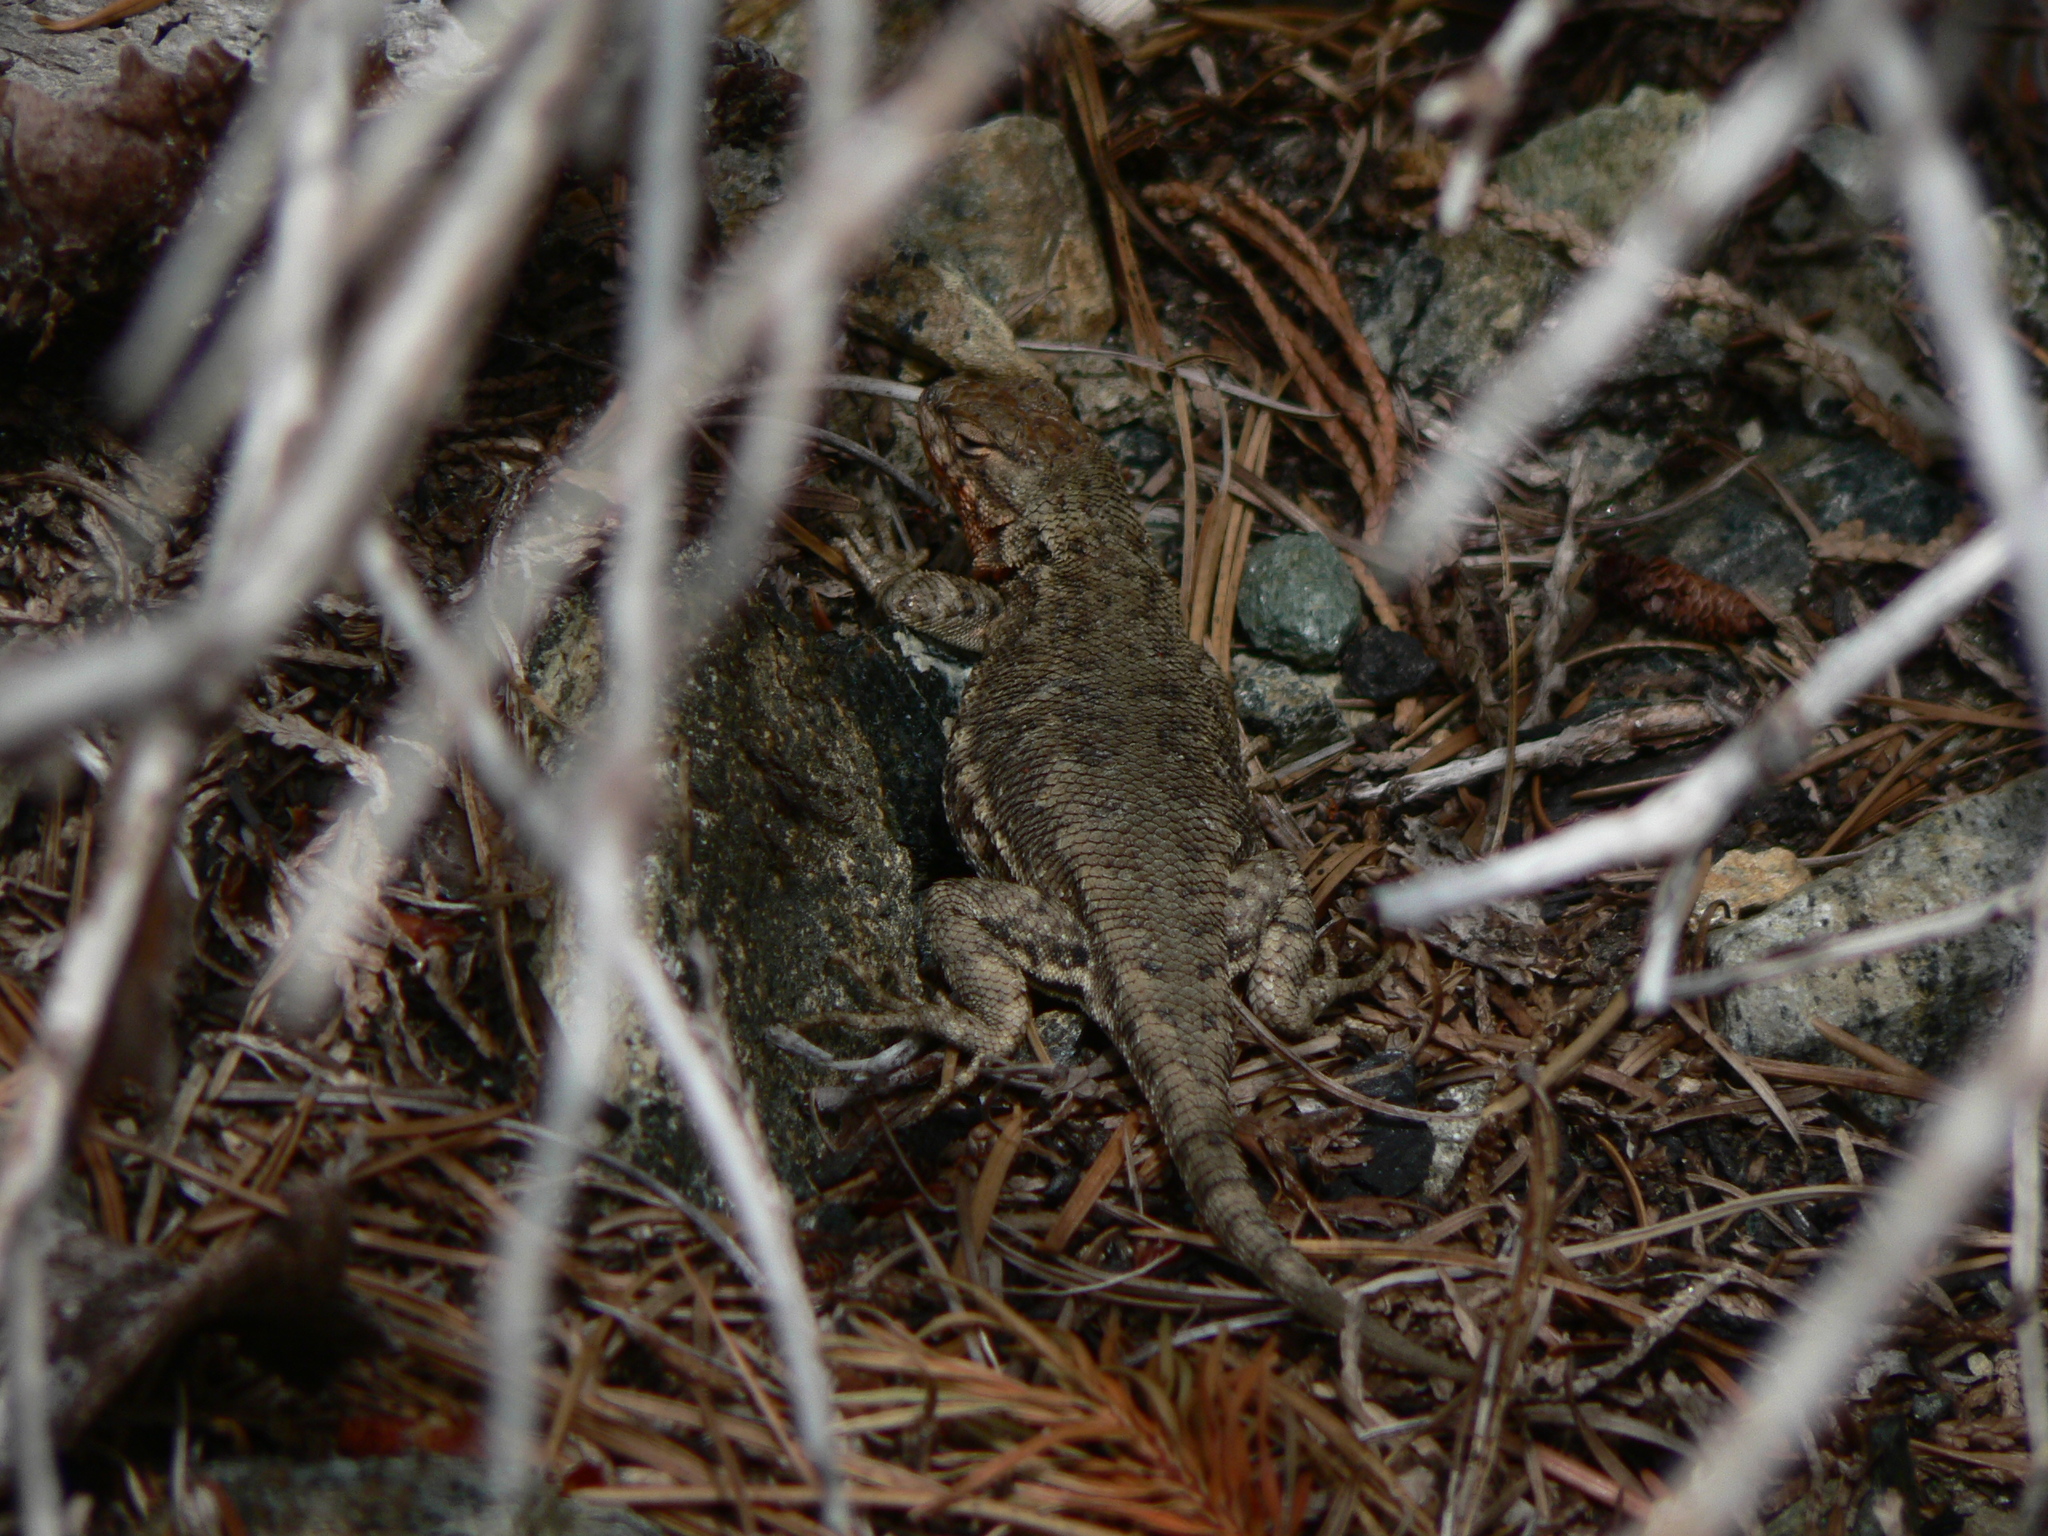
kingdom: Animalia
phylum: Chordata
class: Squamata
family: Phrynosomatidae
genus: Sceloporus
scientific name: Sceloporus graciosus
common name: Sagebrush lizard
